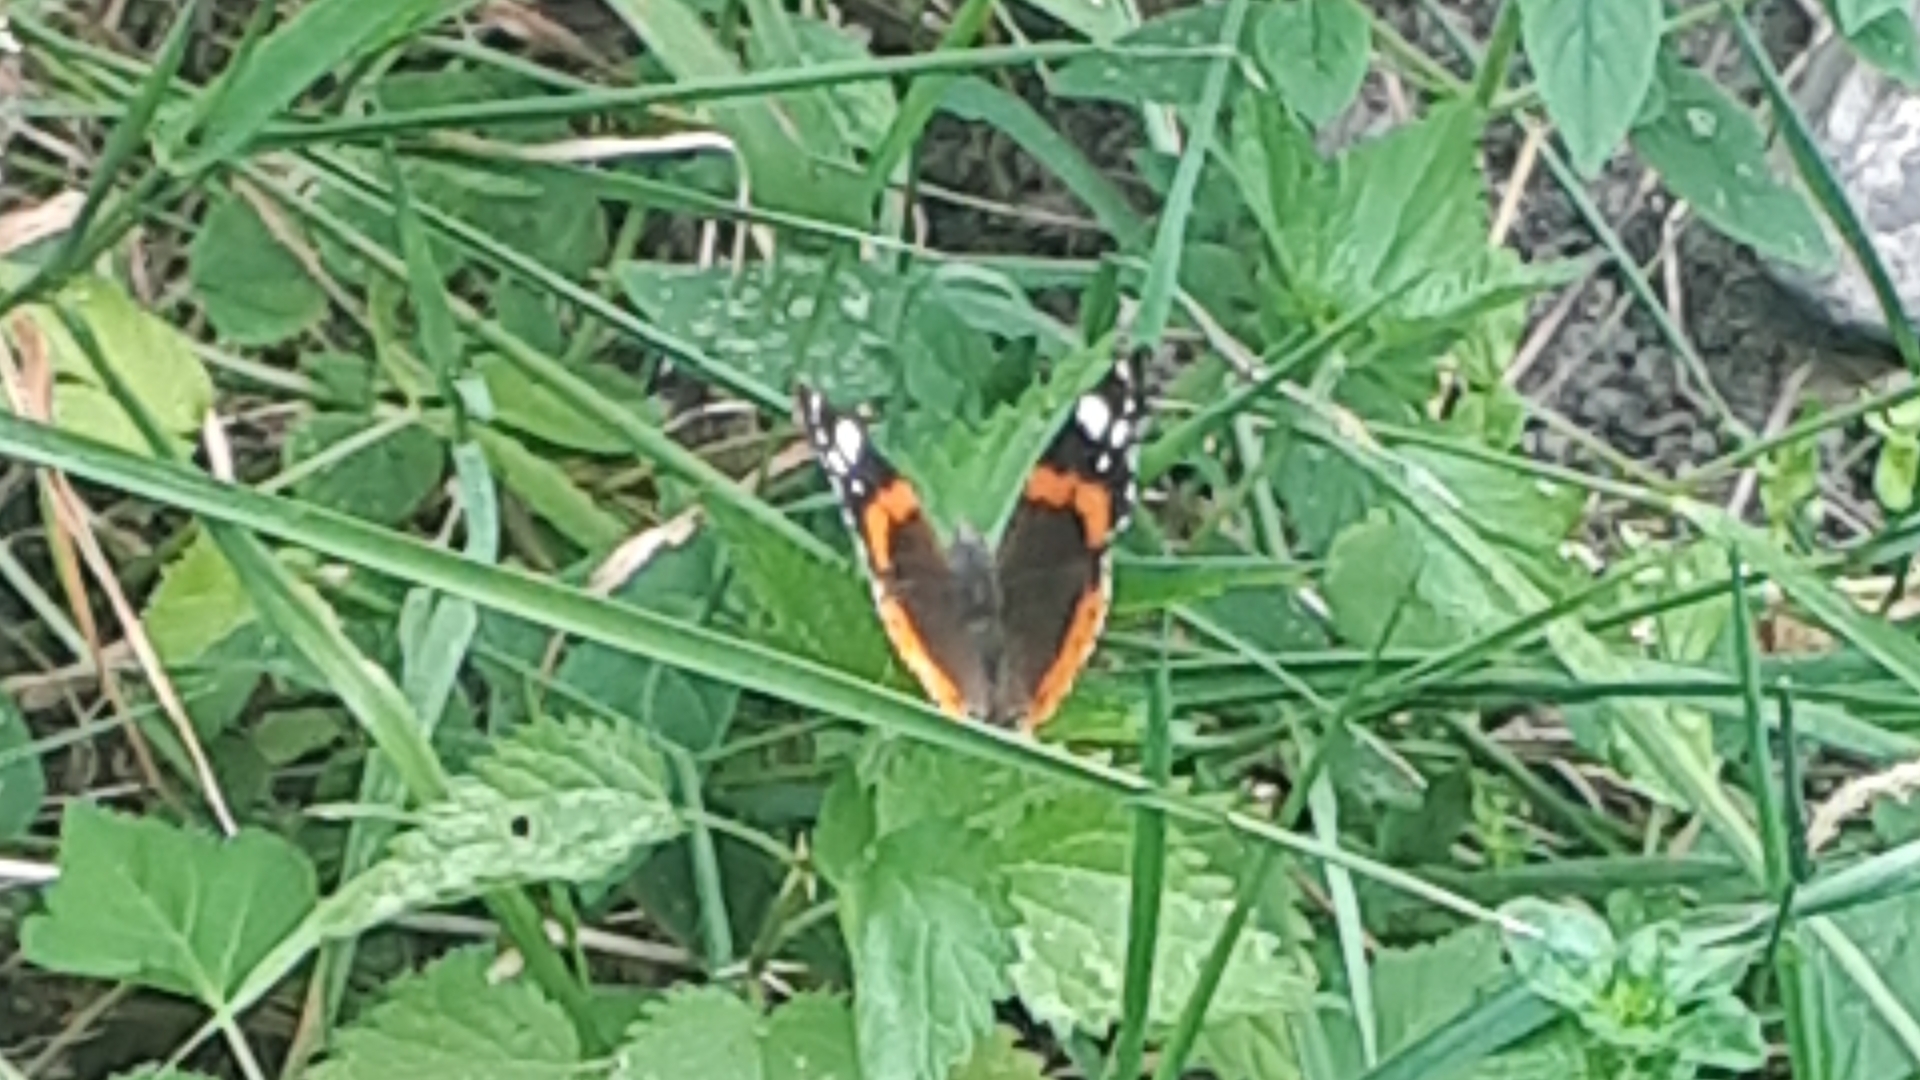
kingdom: Animalia
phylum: Arthropoda
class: Insecta
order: Lepidoptera
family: Nymphalidae
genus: Vanessa
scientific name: Vanessa atalanta
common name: Red admiral
